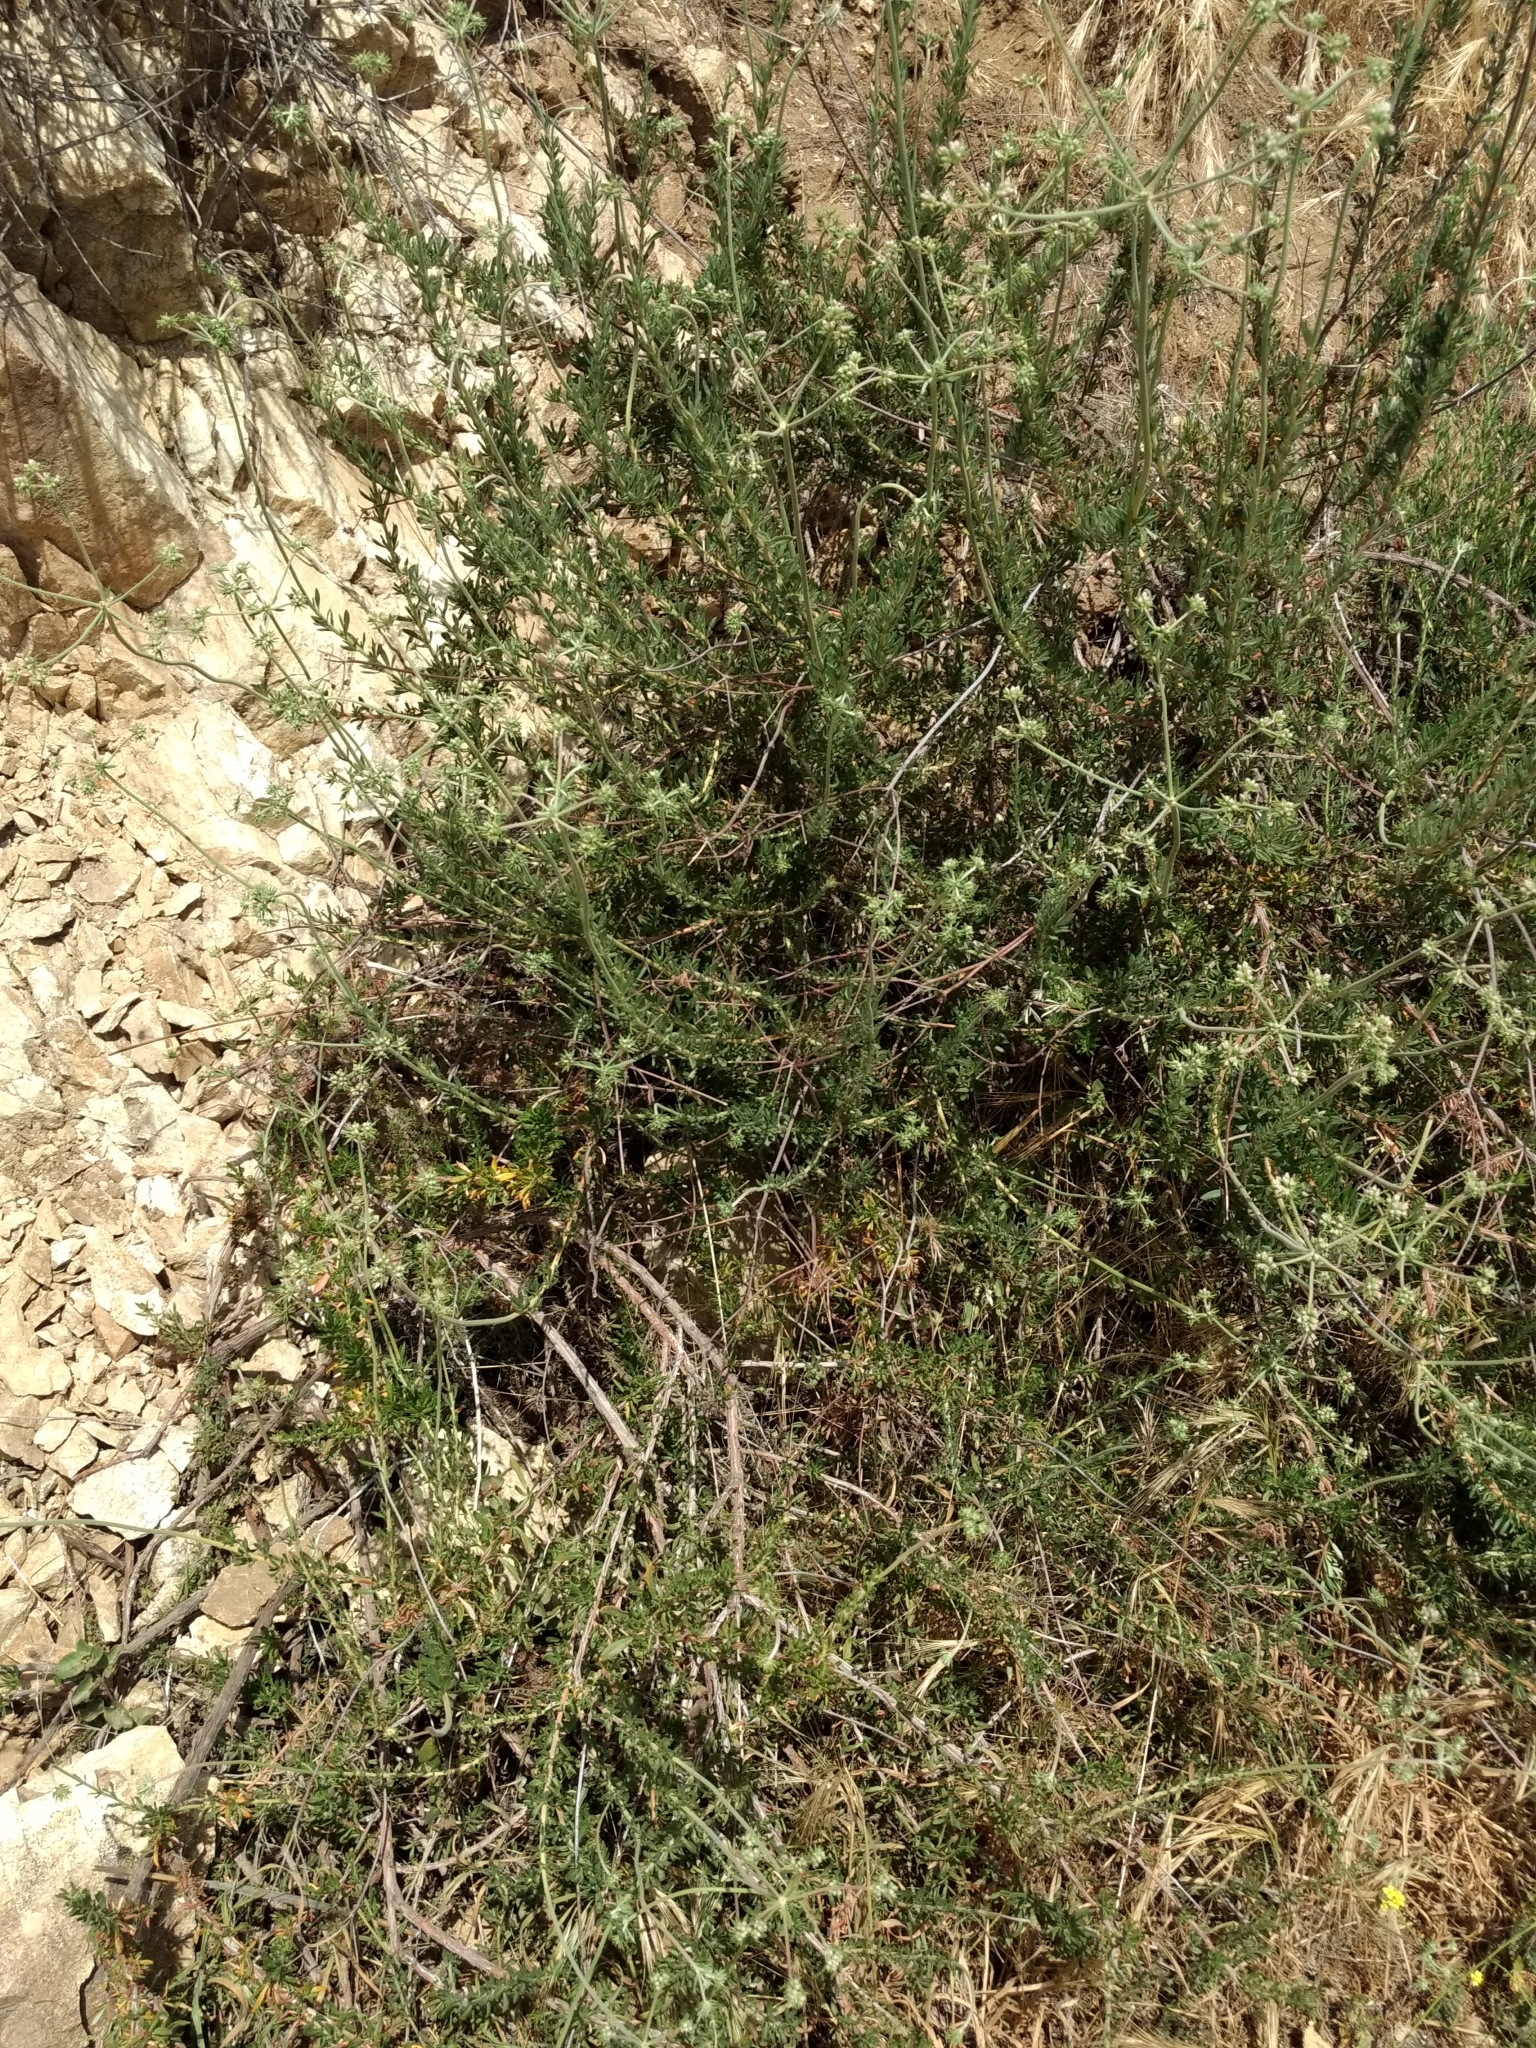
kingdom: Plantae
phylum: Tracheophyta
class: Magnoliopsida
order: Caryophyllales
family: Polygonaceae
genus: Eriogonum
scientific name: Eriogonum fasciculatum
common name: California wild buckwheat
